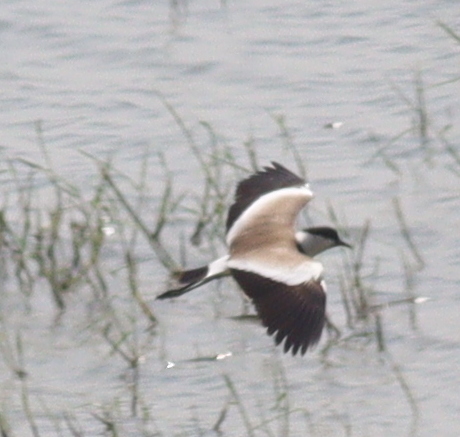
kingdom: Animalia
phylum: Chordata
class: Aves
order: Charadriiformes
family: Charadriidae
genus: Vanellus
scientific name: Vanellus spinosus
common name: Spur-winged lapwing
